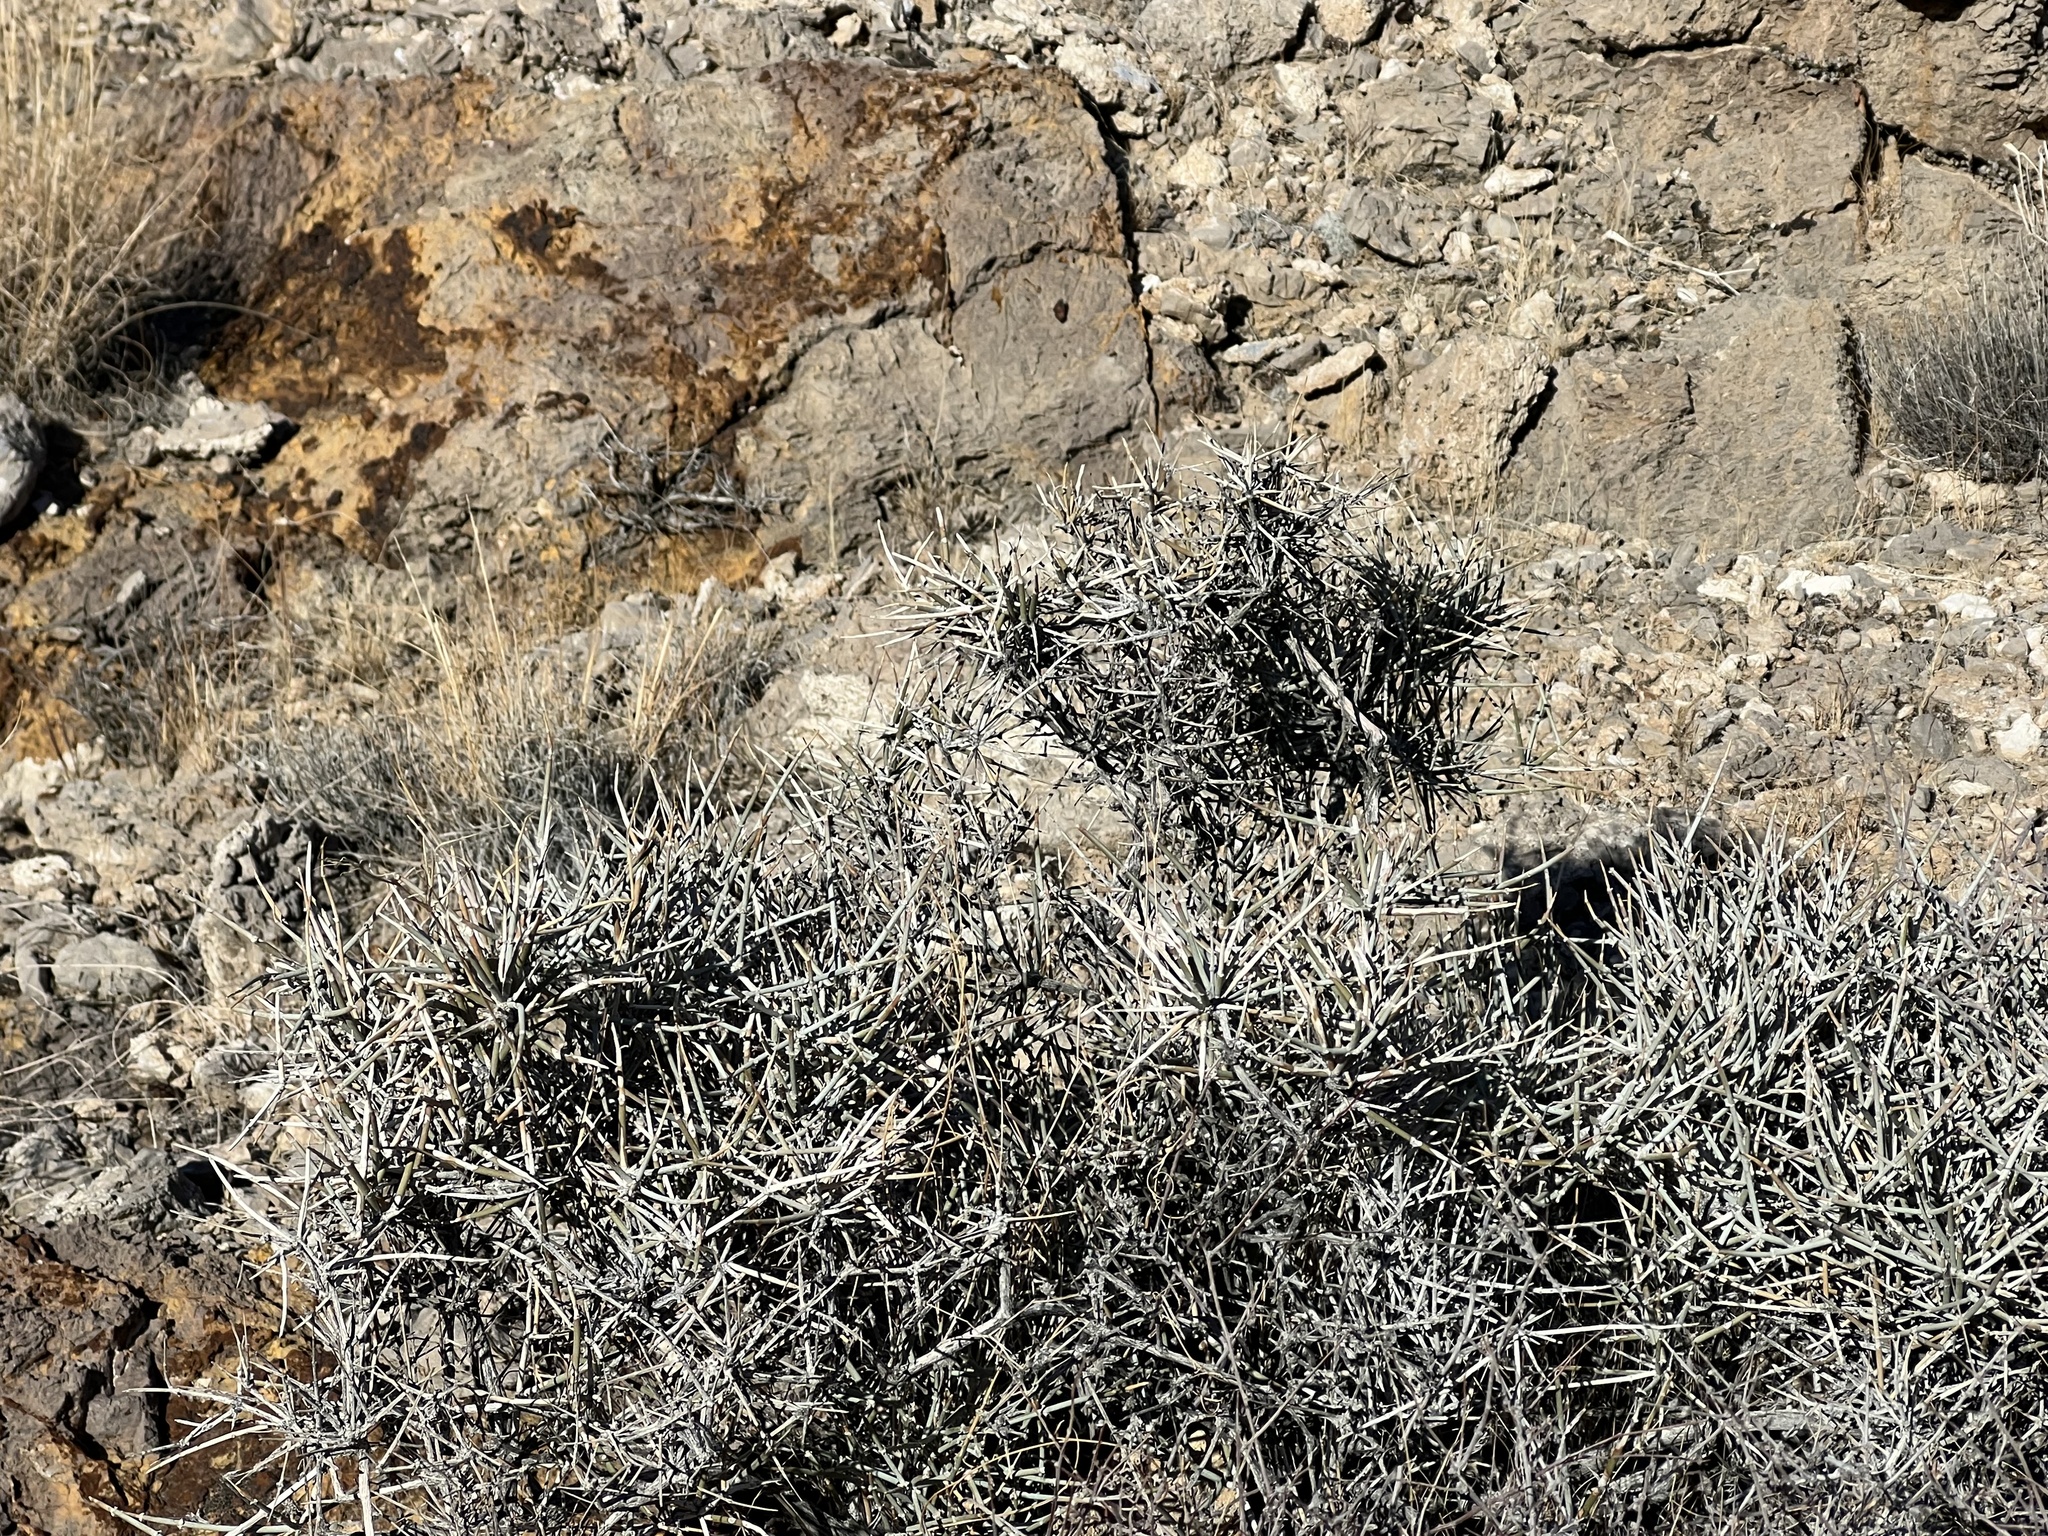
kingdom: Plantae
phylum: Tracheophyta
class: Gnetopsida
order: Ephedrales
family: Ephedraceae
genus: Ephedra
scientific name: Ephedra nevadensis
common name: Gray ephedra
